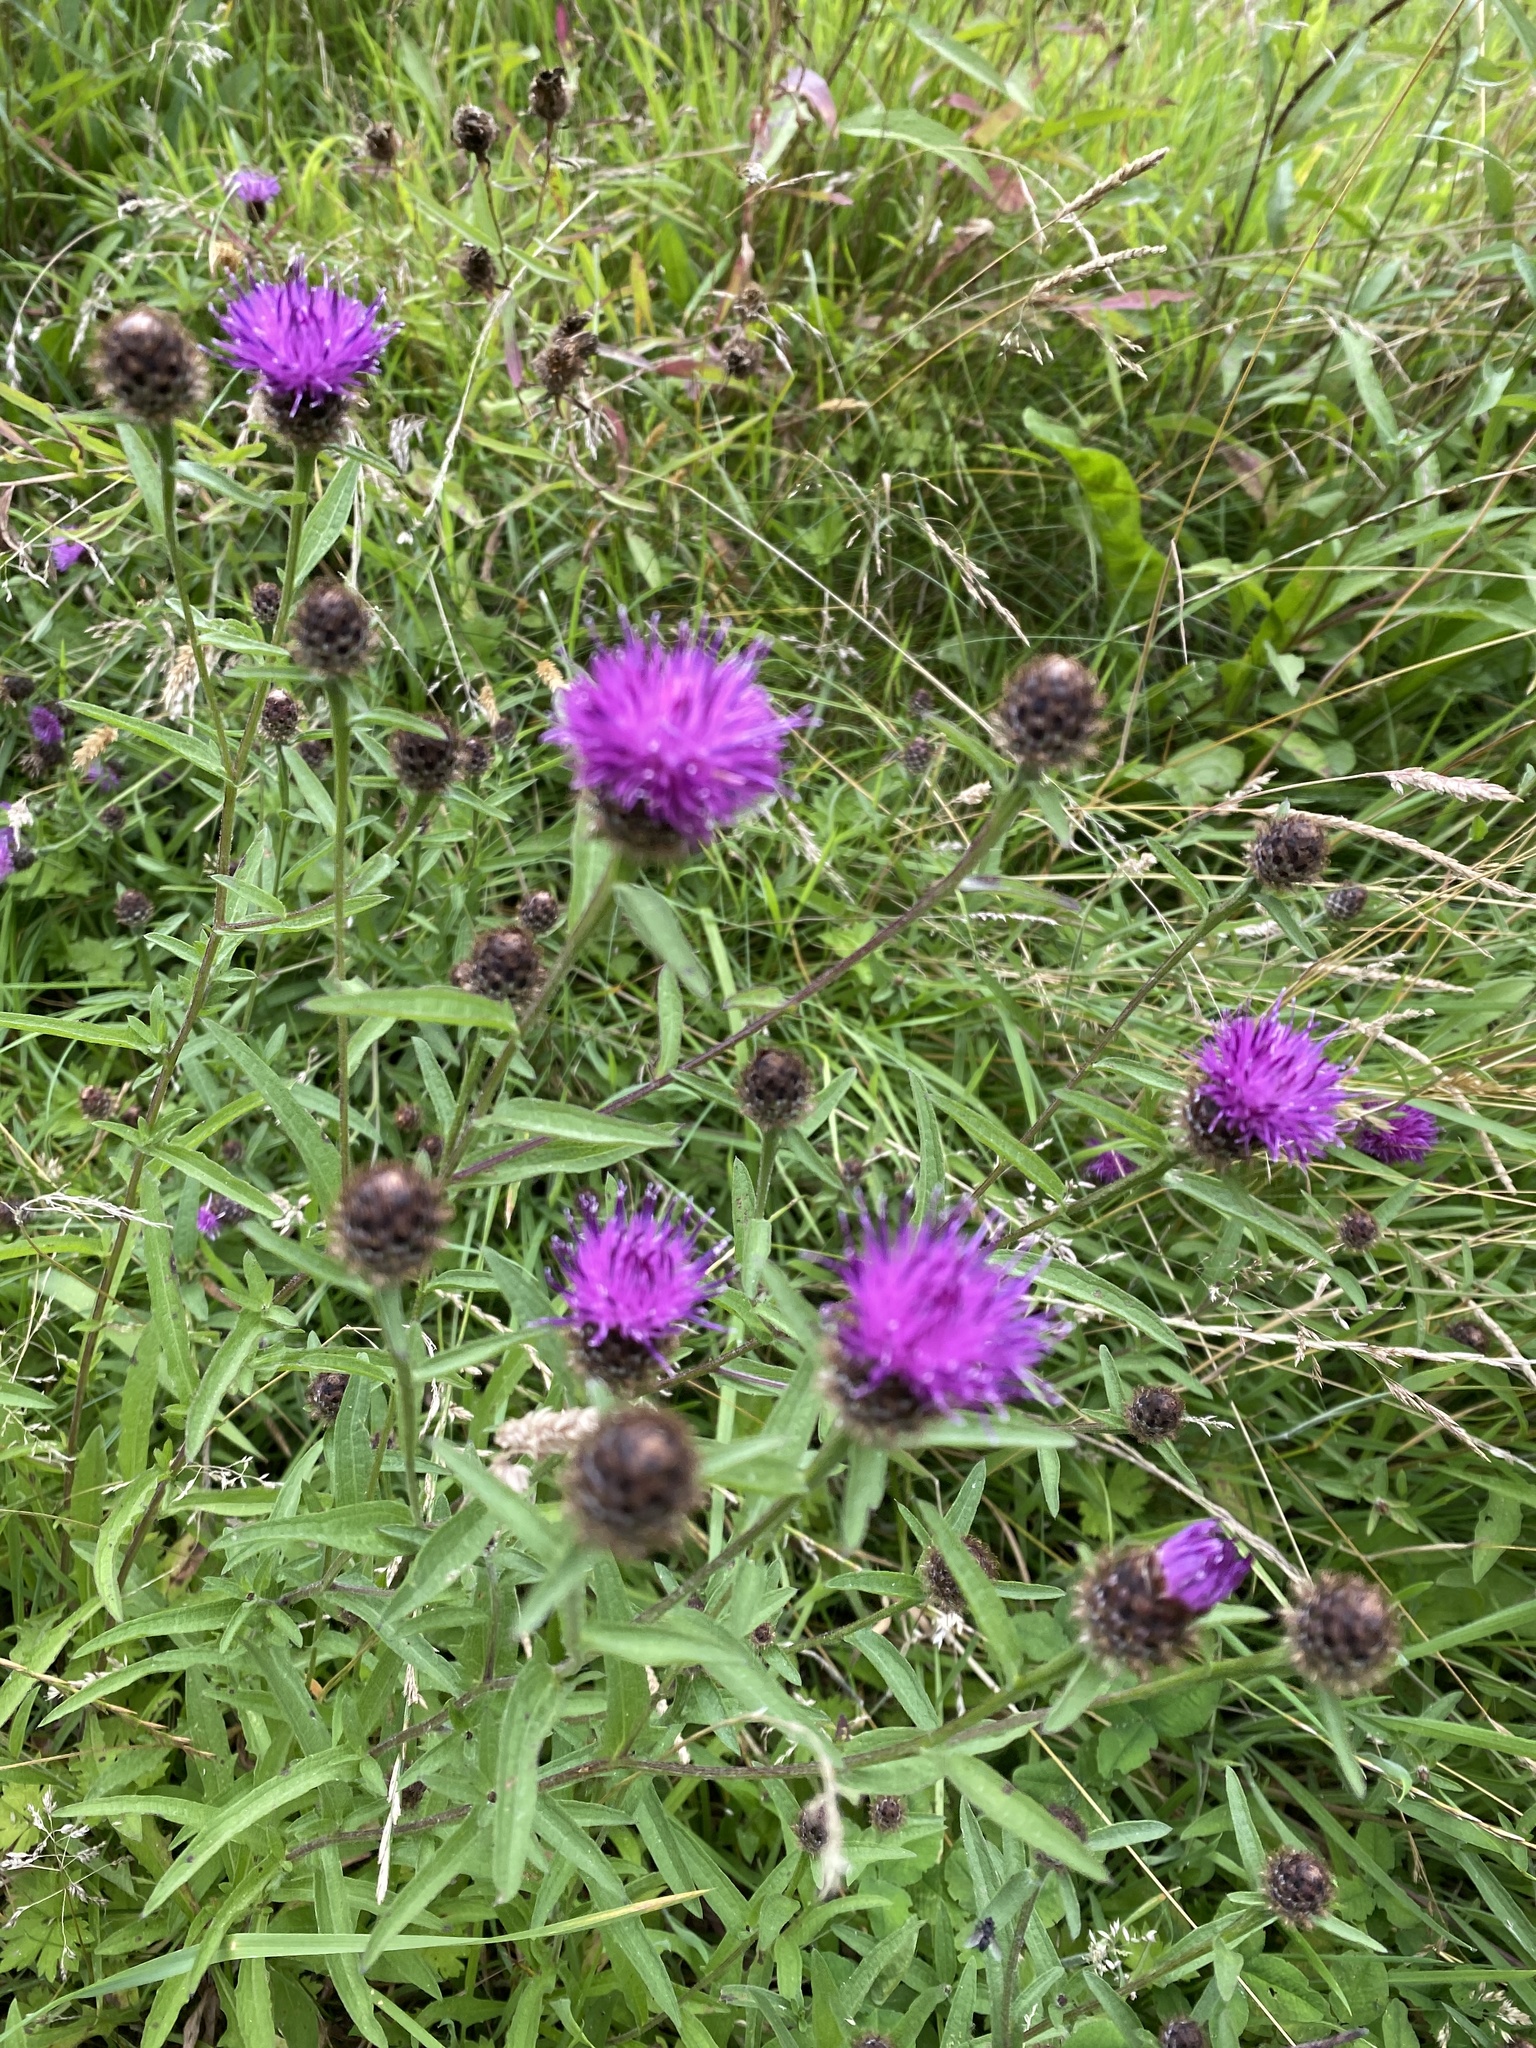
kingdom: Plantae
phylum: Tracheophyta
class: Magnoliopsida
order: Asterales
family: Asteraceae
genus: Centaurea
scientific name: Centaurea nigra
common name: Lesser knapweed
